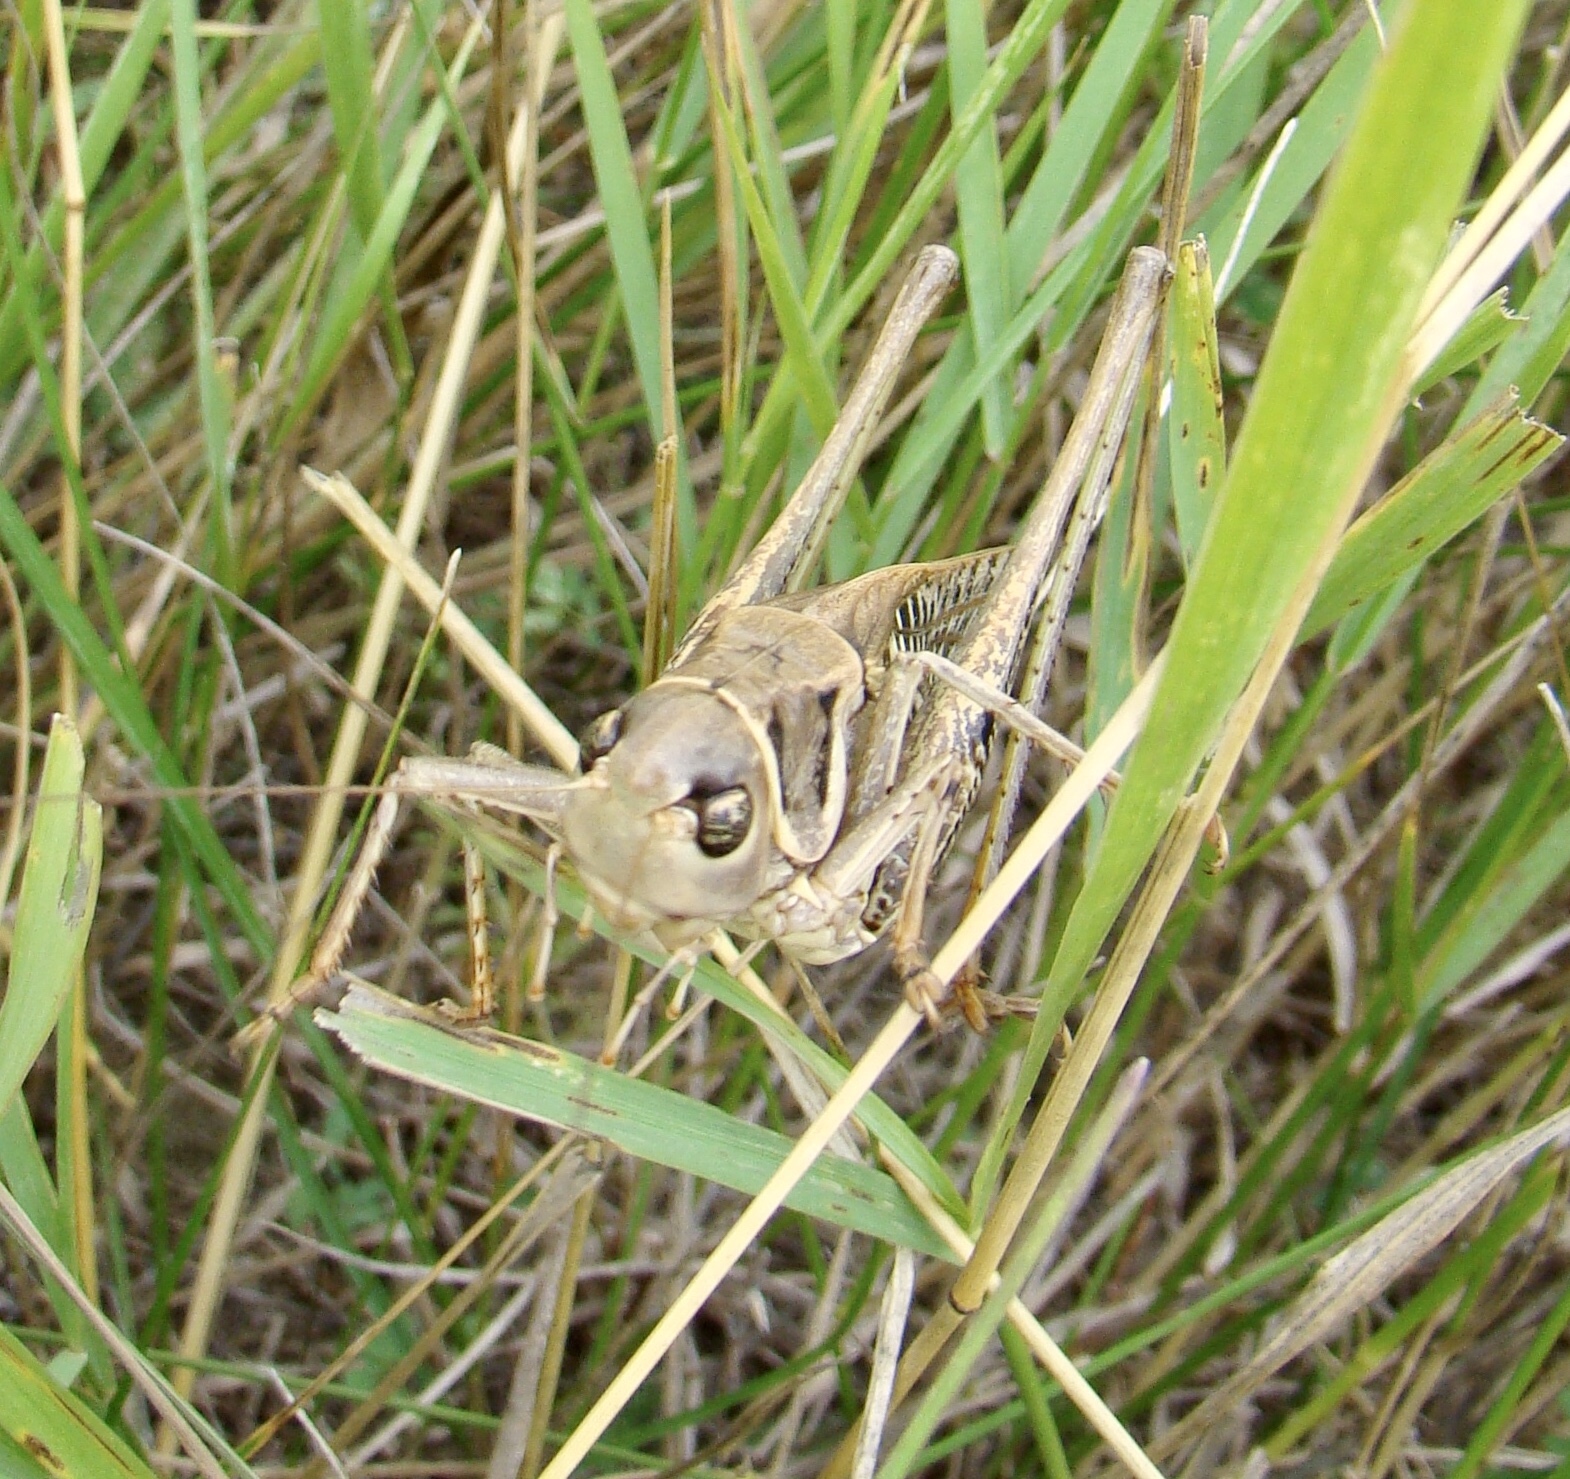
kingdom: Animalia
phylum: Arthropoda
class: Insecta
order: Orthoptera
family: Tettigoniidae
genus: Decticus
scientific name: Decticus albifrons
